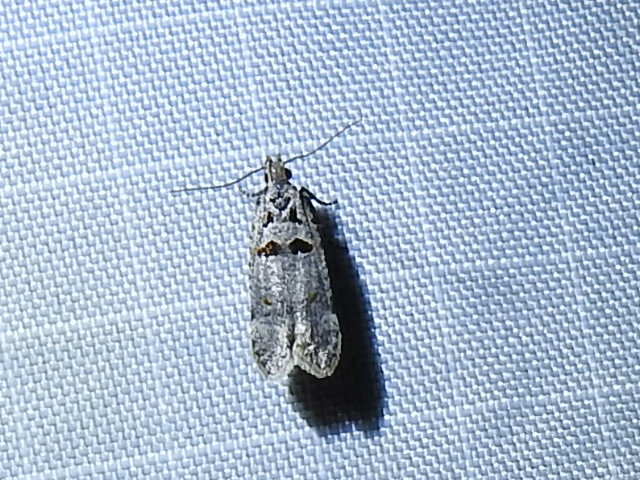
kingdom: Animalia
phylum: Arthropoda
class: Insecta
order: Lepidoptera
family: Gelechiidae
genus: Deltophora
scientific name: Deltophora glandiferella
